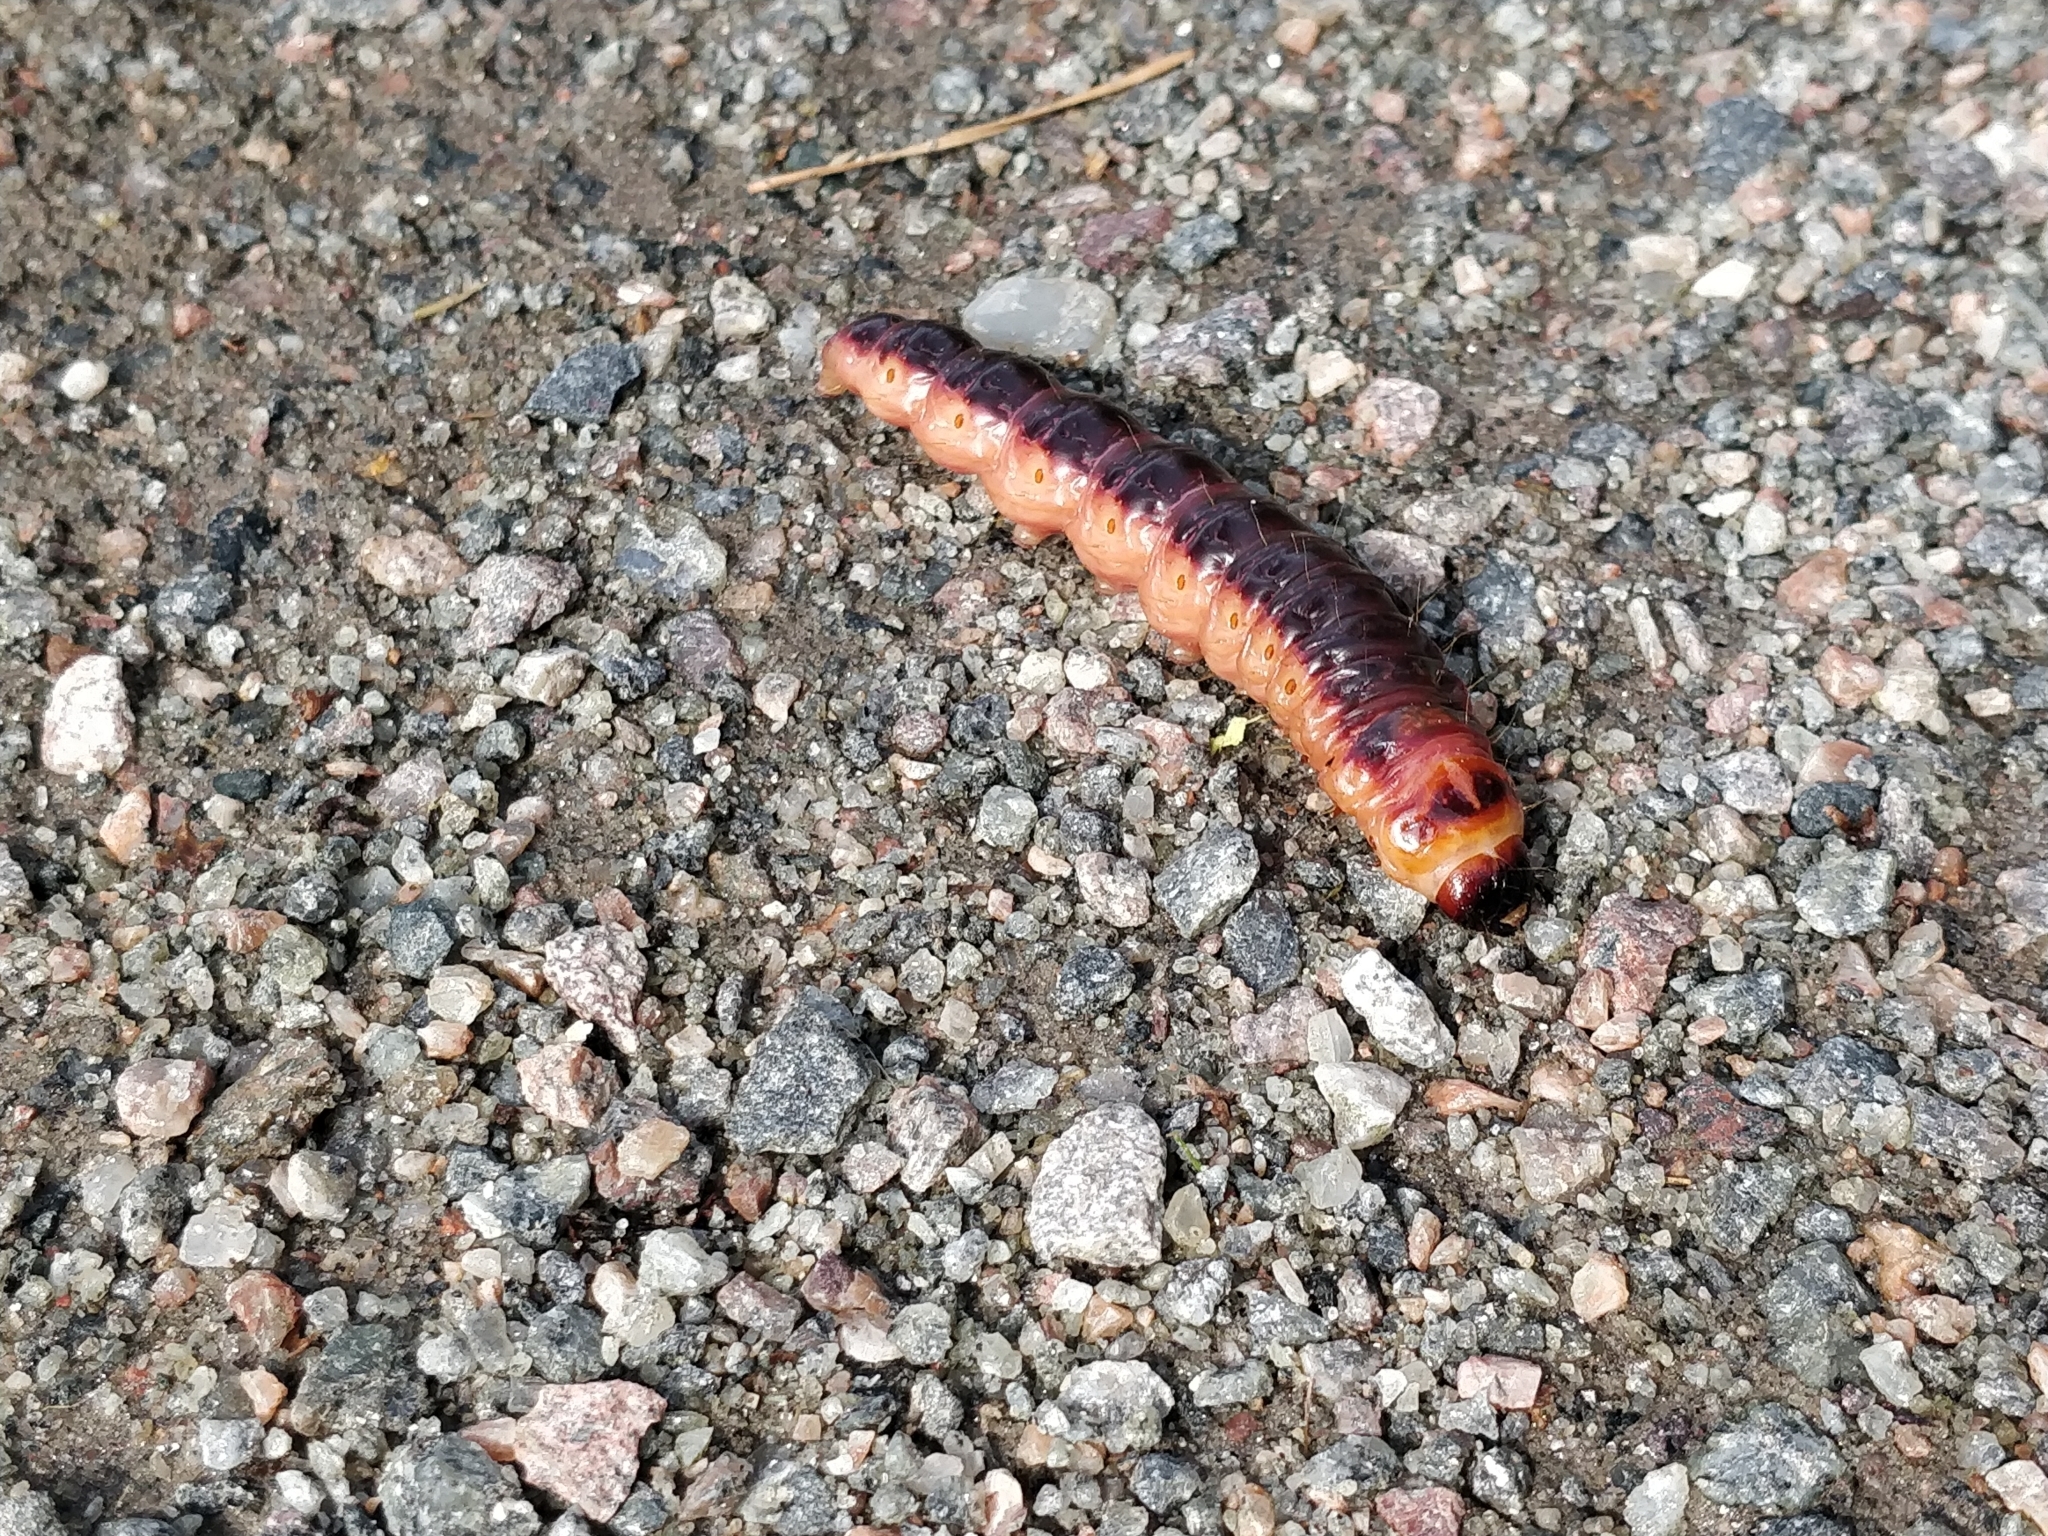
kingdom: Animalia
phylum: Arthropoda
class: Insecta
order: Lepidoptera
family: Cossidae
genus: Cossus
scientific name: Cossus cossus
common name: Goat moth
